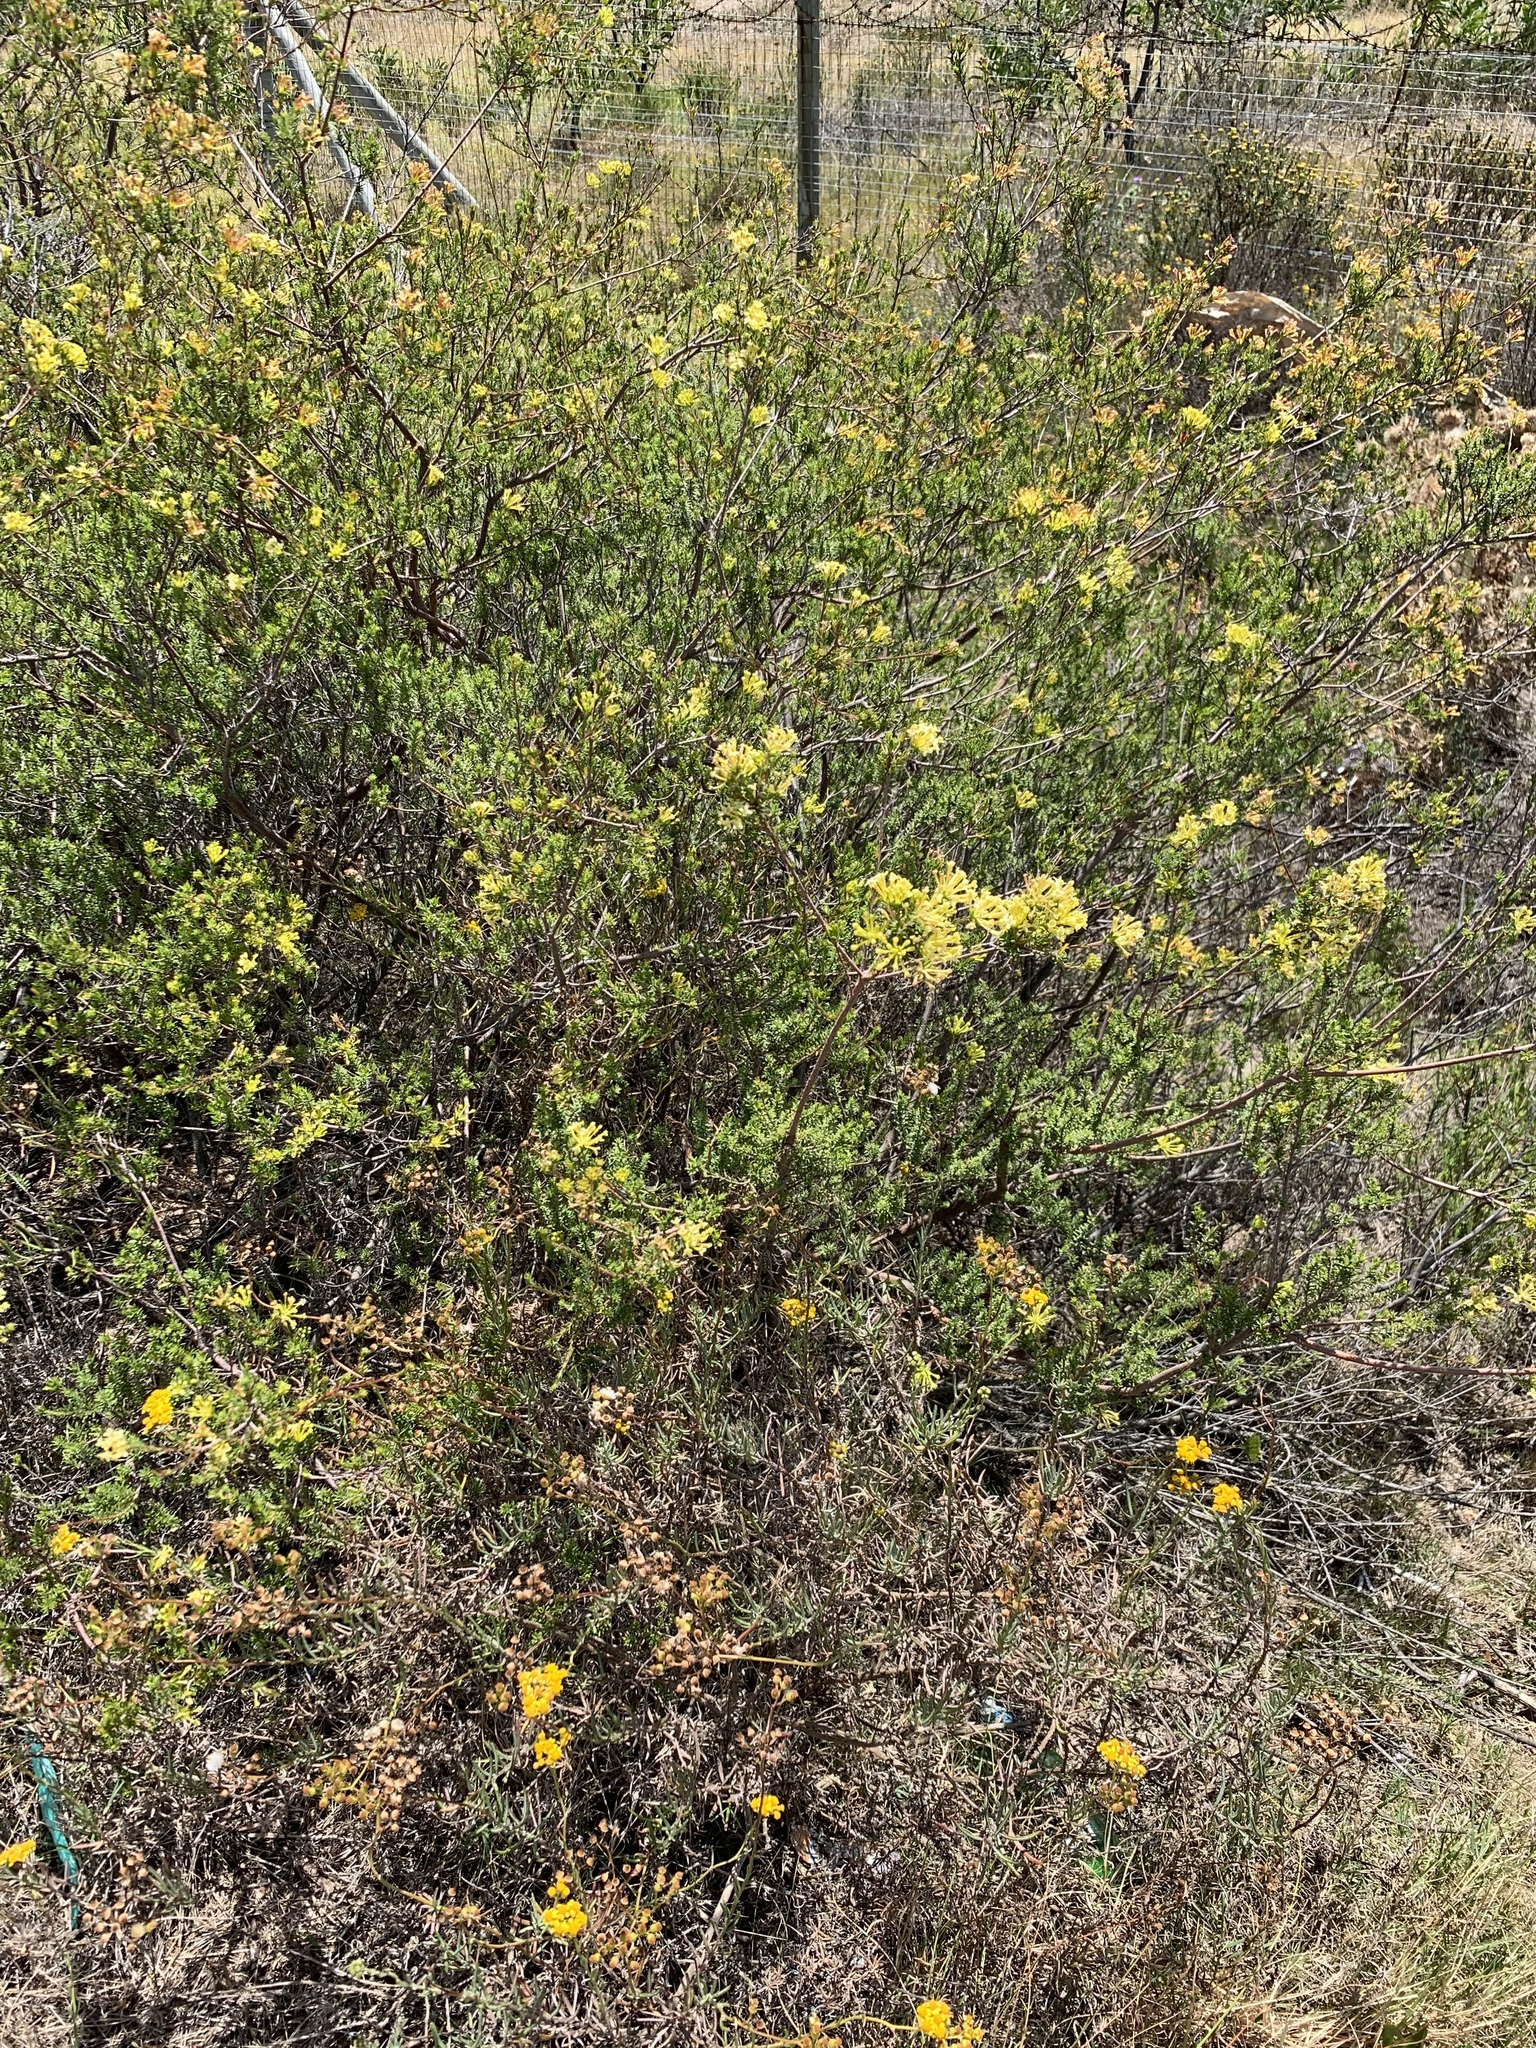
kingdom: Plantae
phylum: Tracheophyta
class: Magnoliopsida
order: Malvales
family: Thymelaeaceae
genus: Gnidia
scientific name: Gnidia squarrosa
